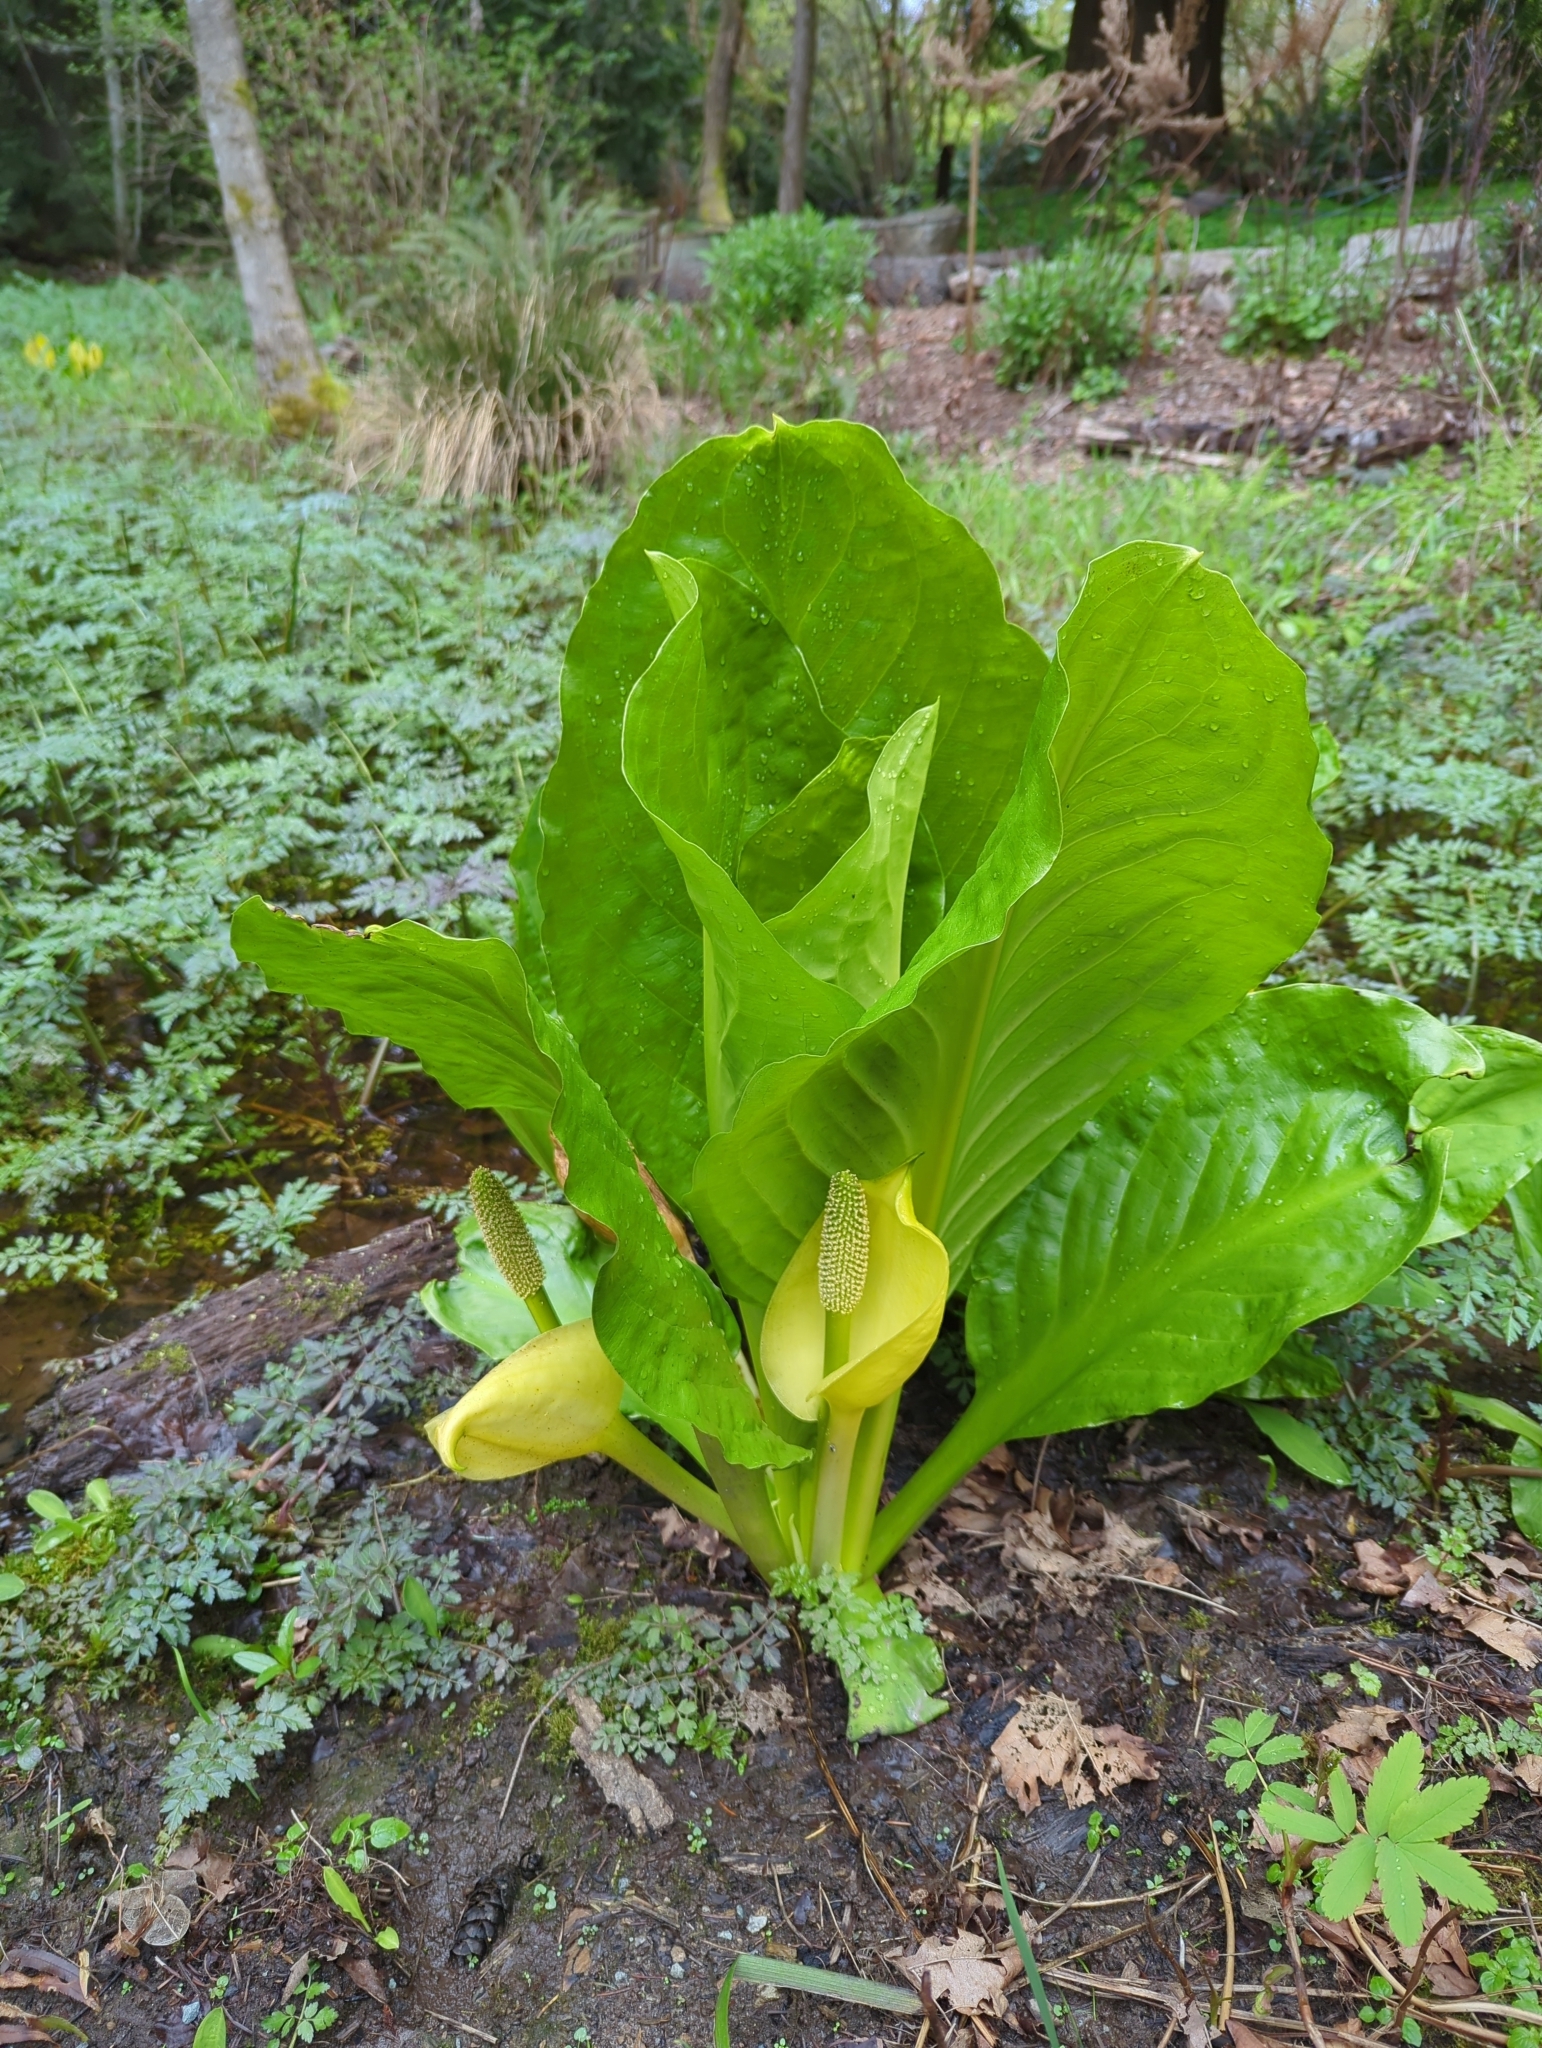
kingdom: Plantae
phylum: Tracheophyta
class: Liliopsida
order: Alismatales
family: Araceae
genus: Lysichiton
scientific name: Lysichiton americanus
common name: American skunk cabbage
